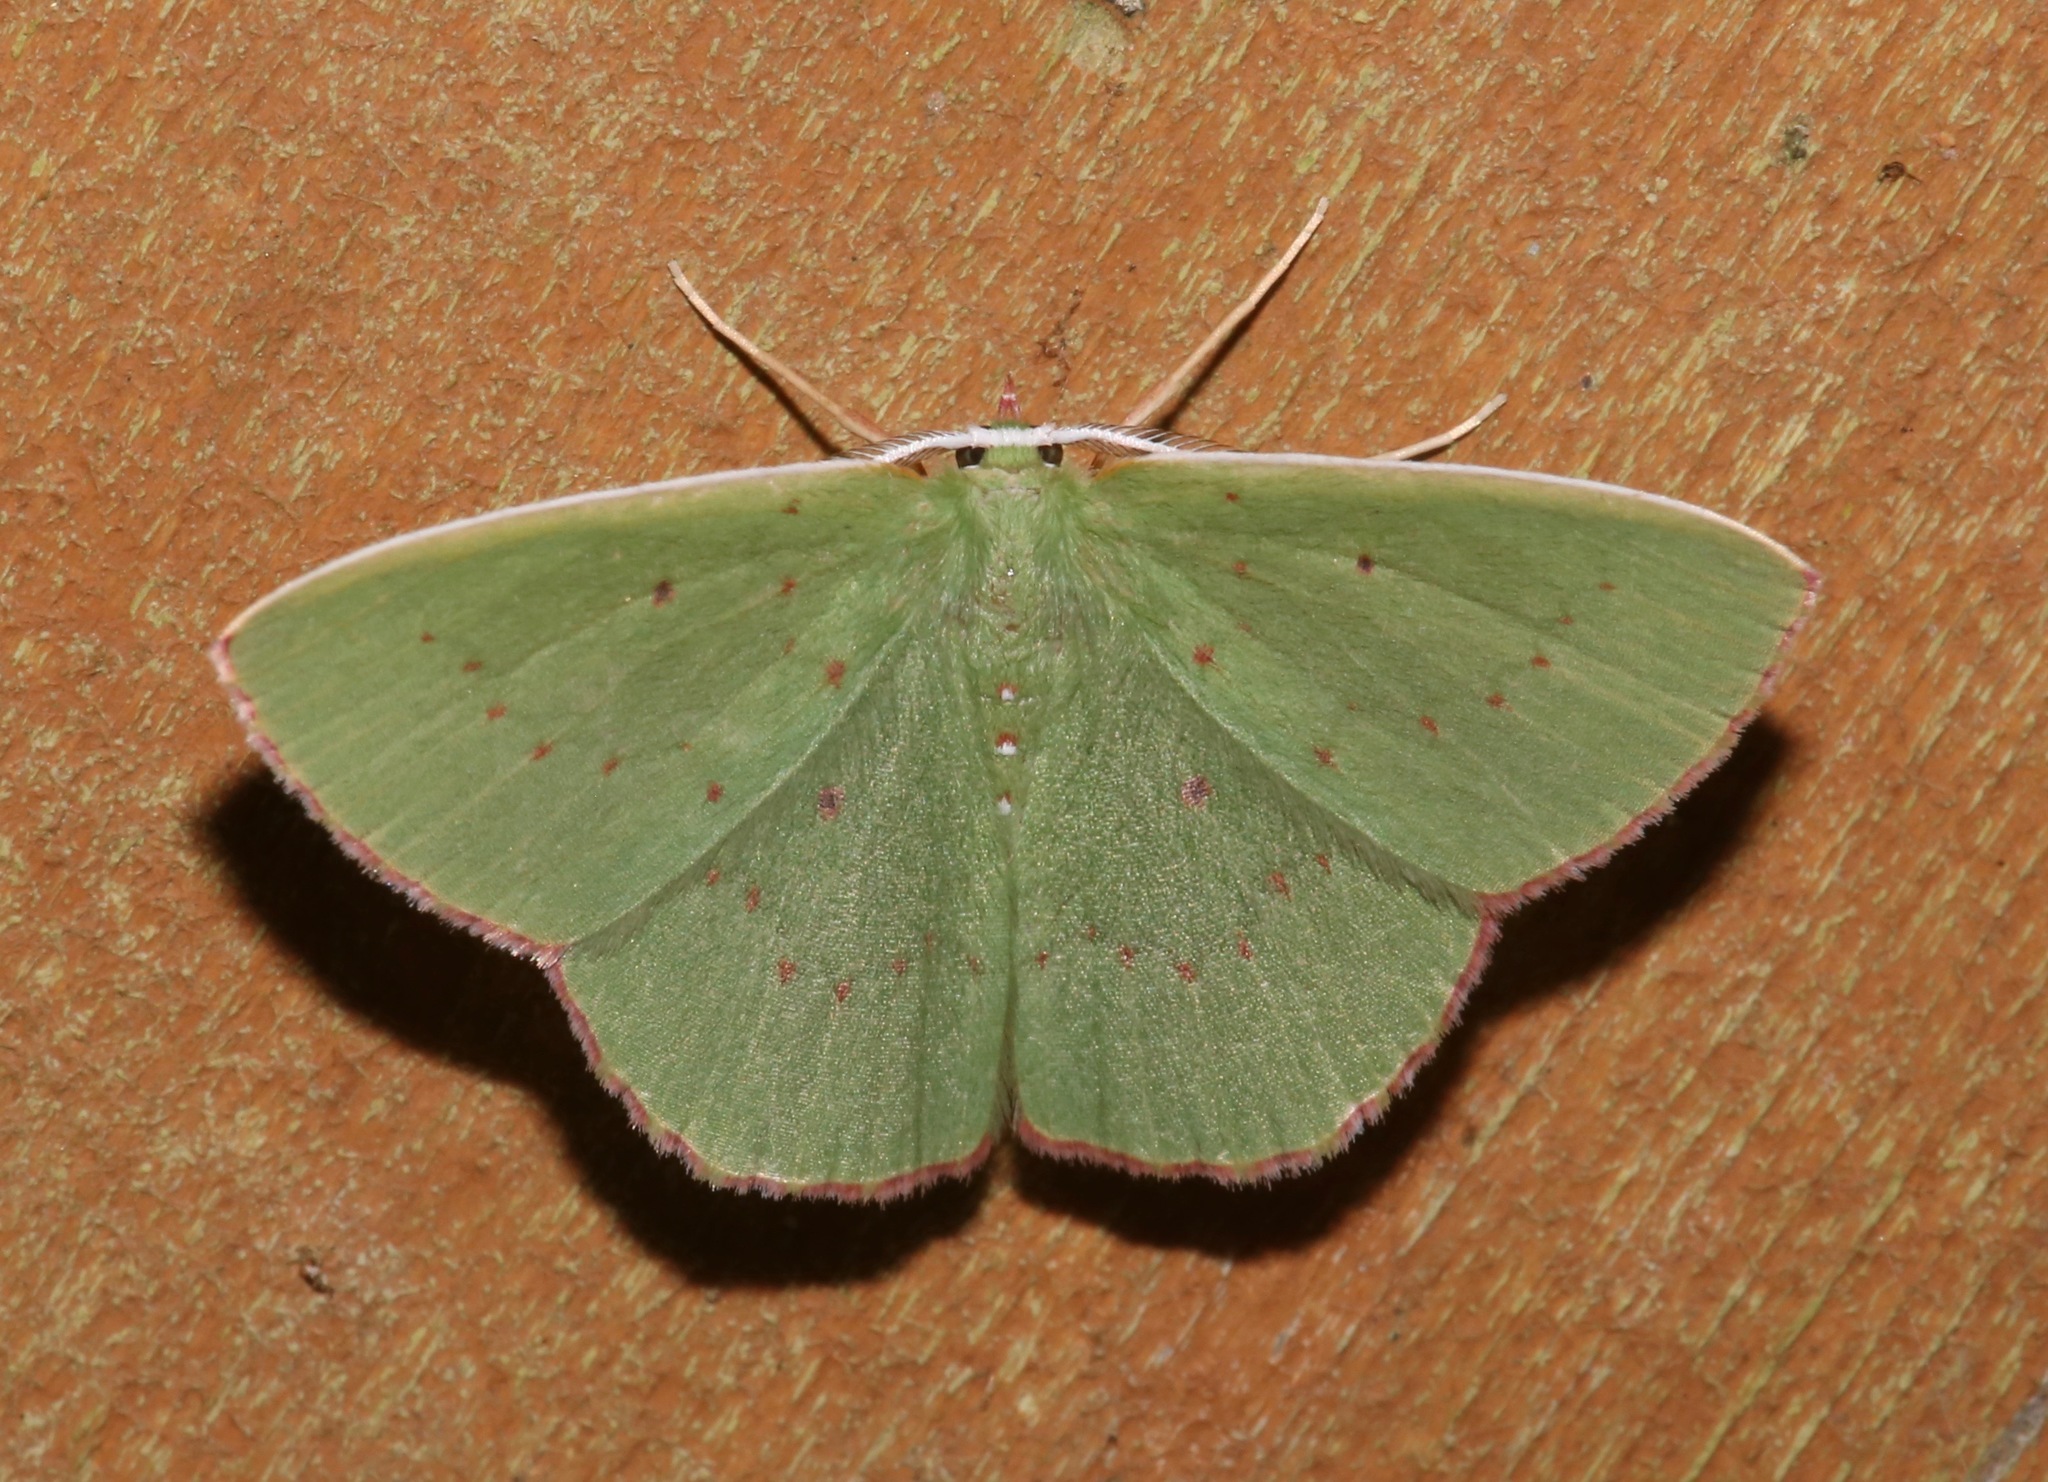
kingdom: Animalia
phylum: Arthropoda
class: Insecta
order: Lepidoptera
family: Geometridae
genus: Phrudocentra
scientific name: Phrudocentra centrifugaria
